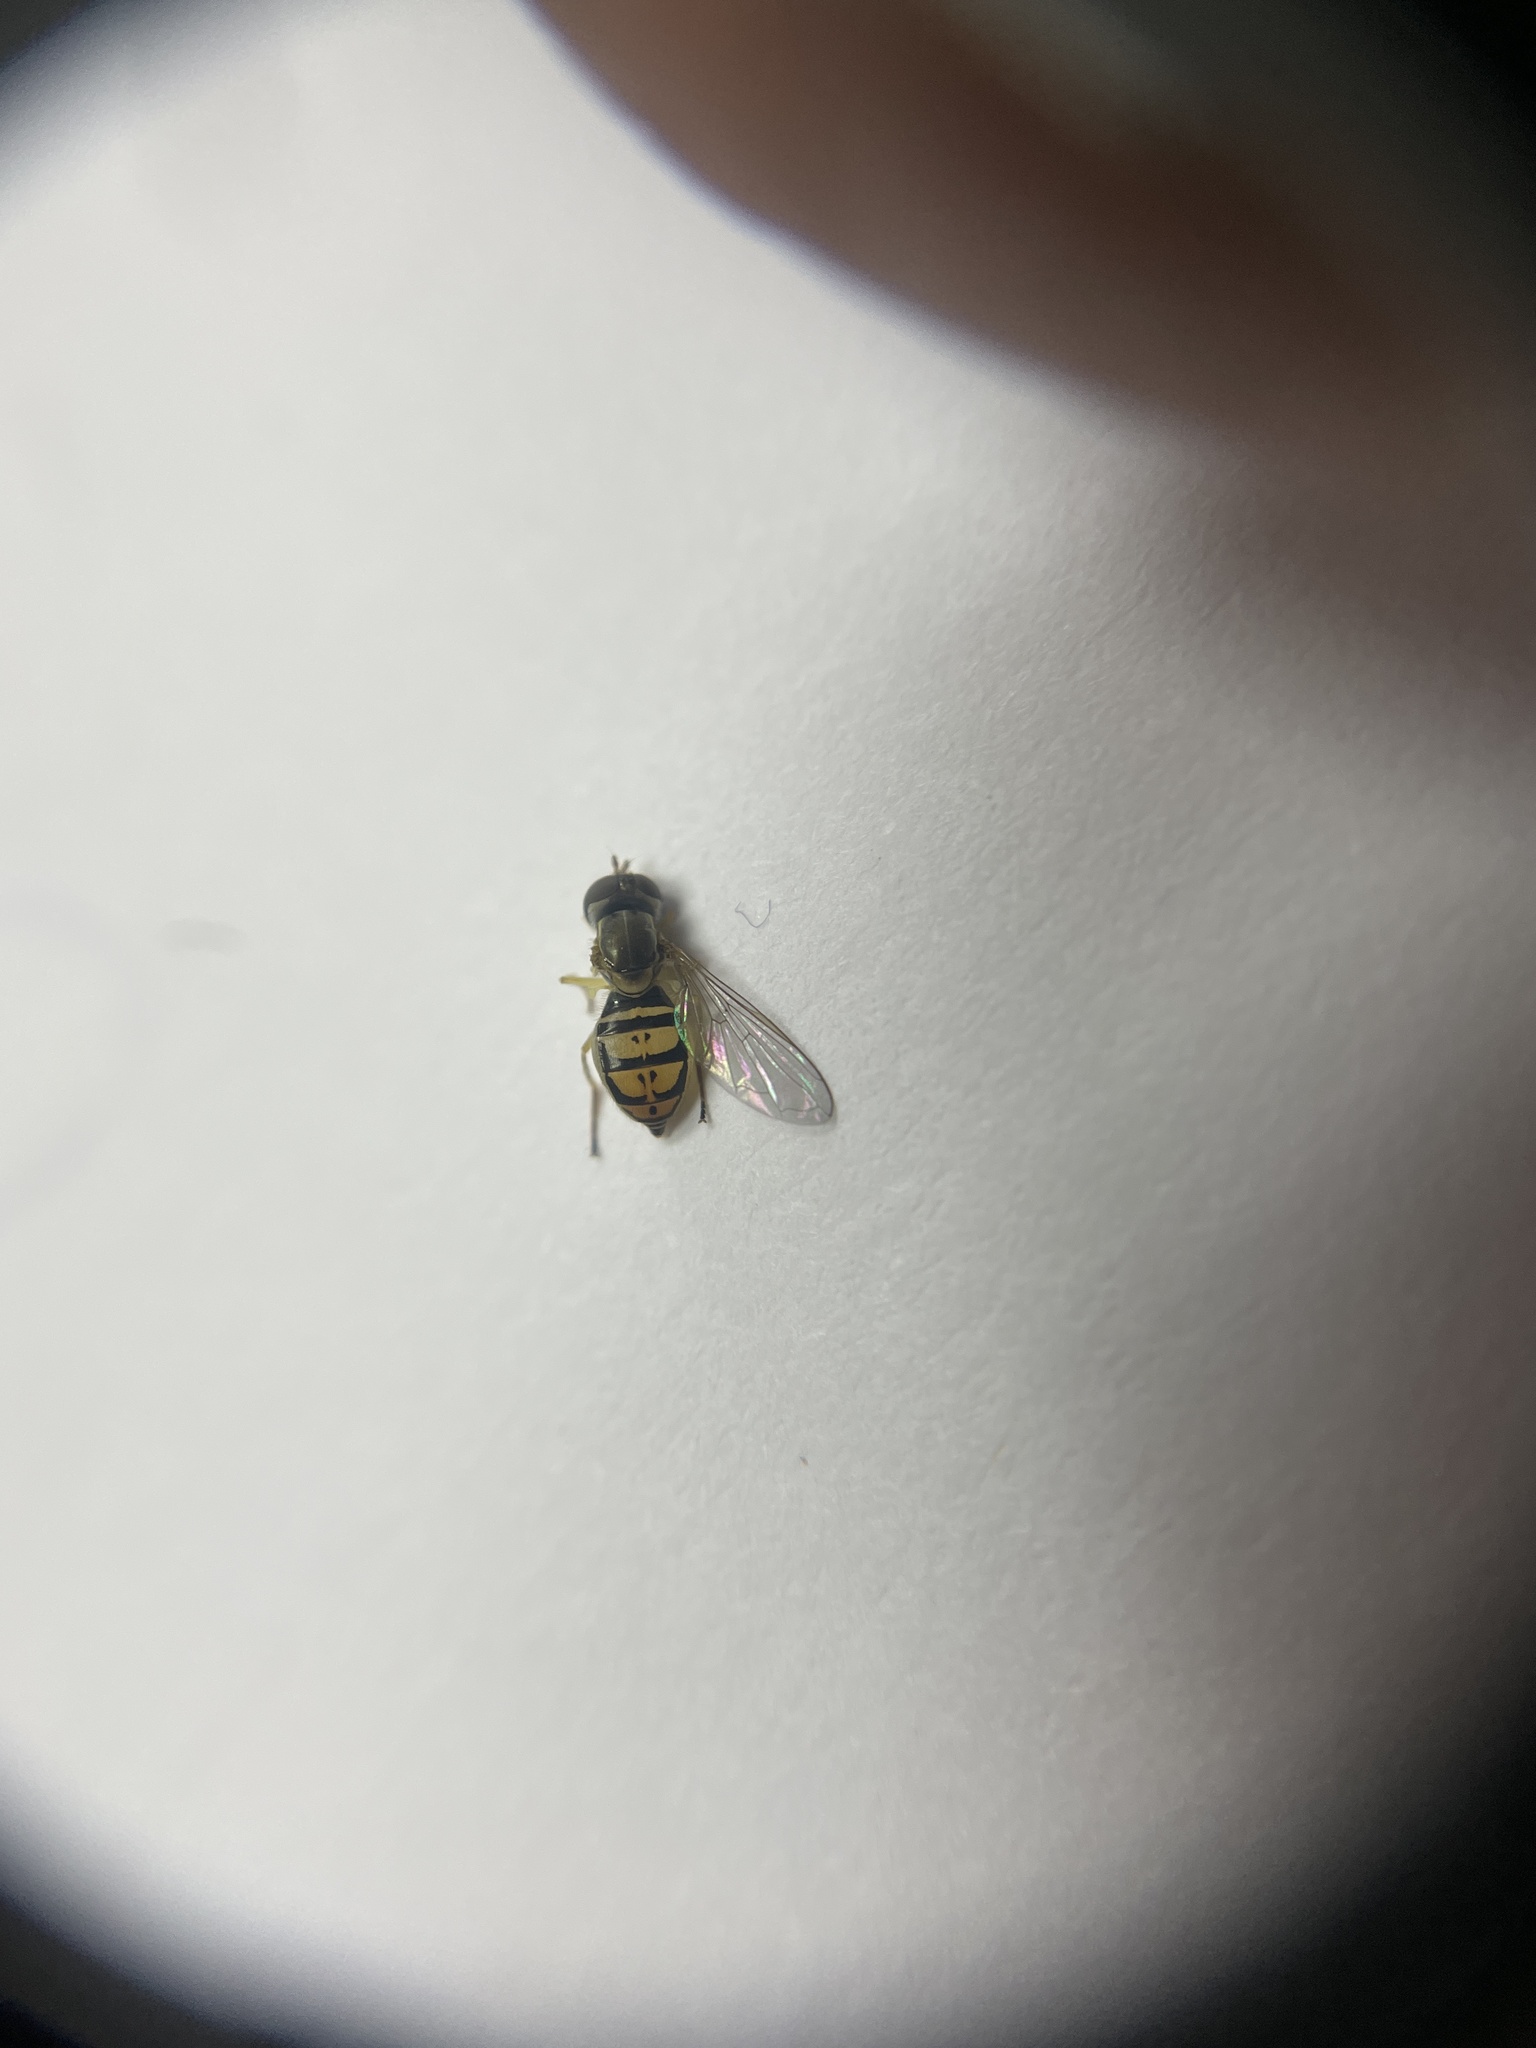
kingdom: Animalia
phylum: Arthropoda
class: Insecta
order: Diptera
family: Syrphidae
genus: Toxomerus
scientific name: Toxomerus marginatus
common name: Syrphid fly
